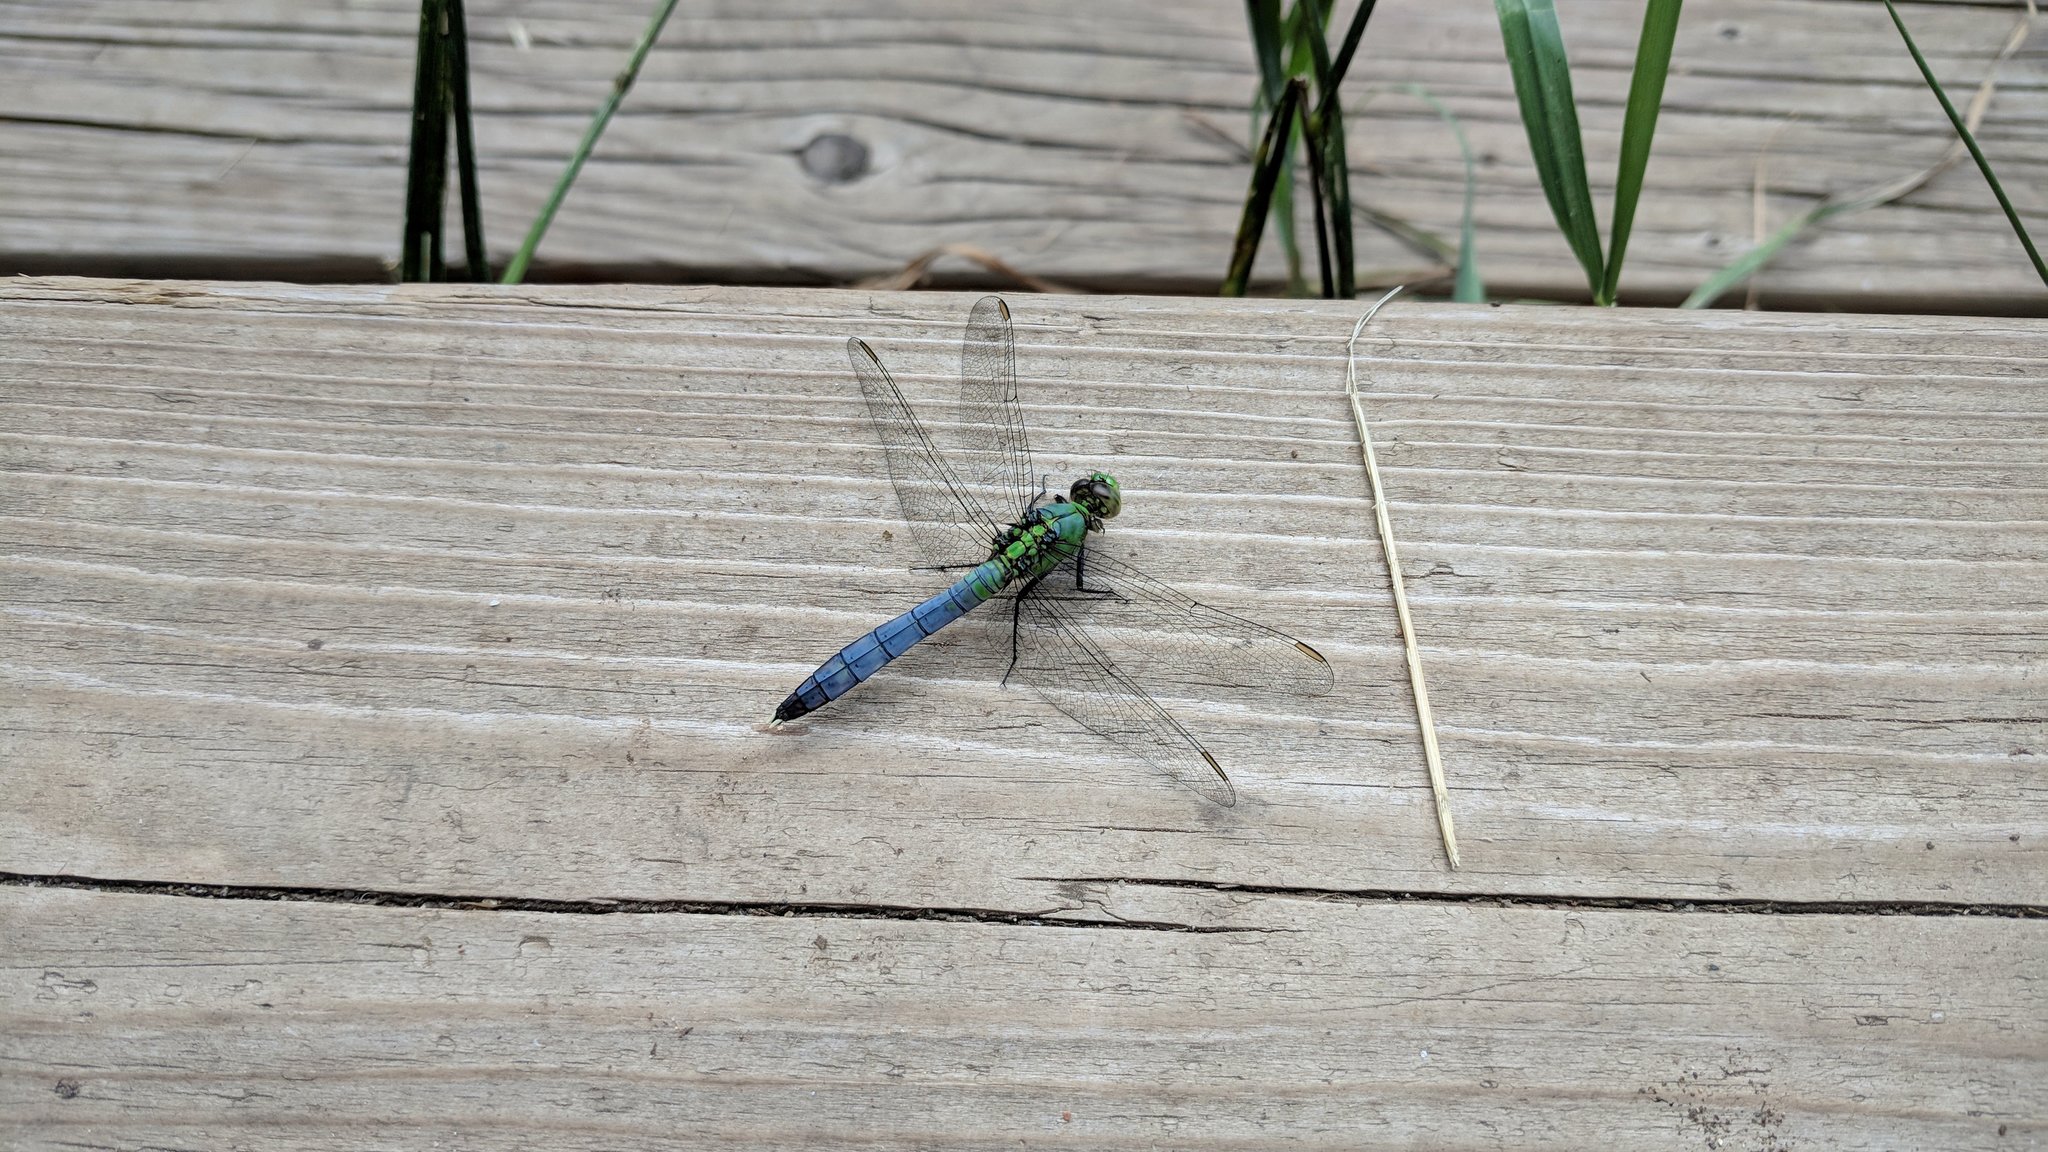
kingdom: Animalia
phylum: Arthropoda
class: Insecta
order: Odonata
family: Libellulidae
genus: Erythemis
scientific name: Erythemis simplicicollis
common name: Eastern pondhawk
